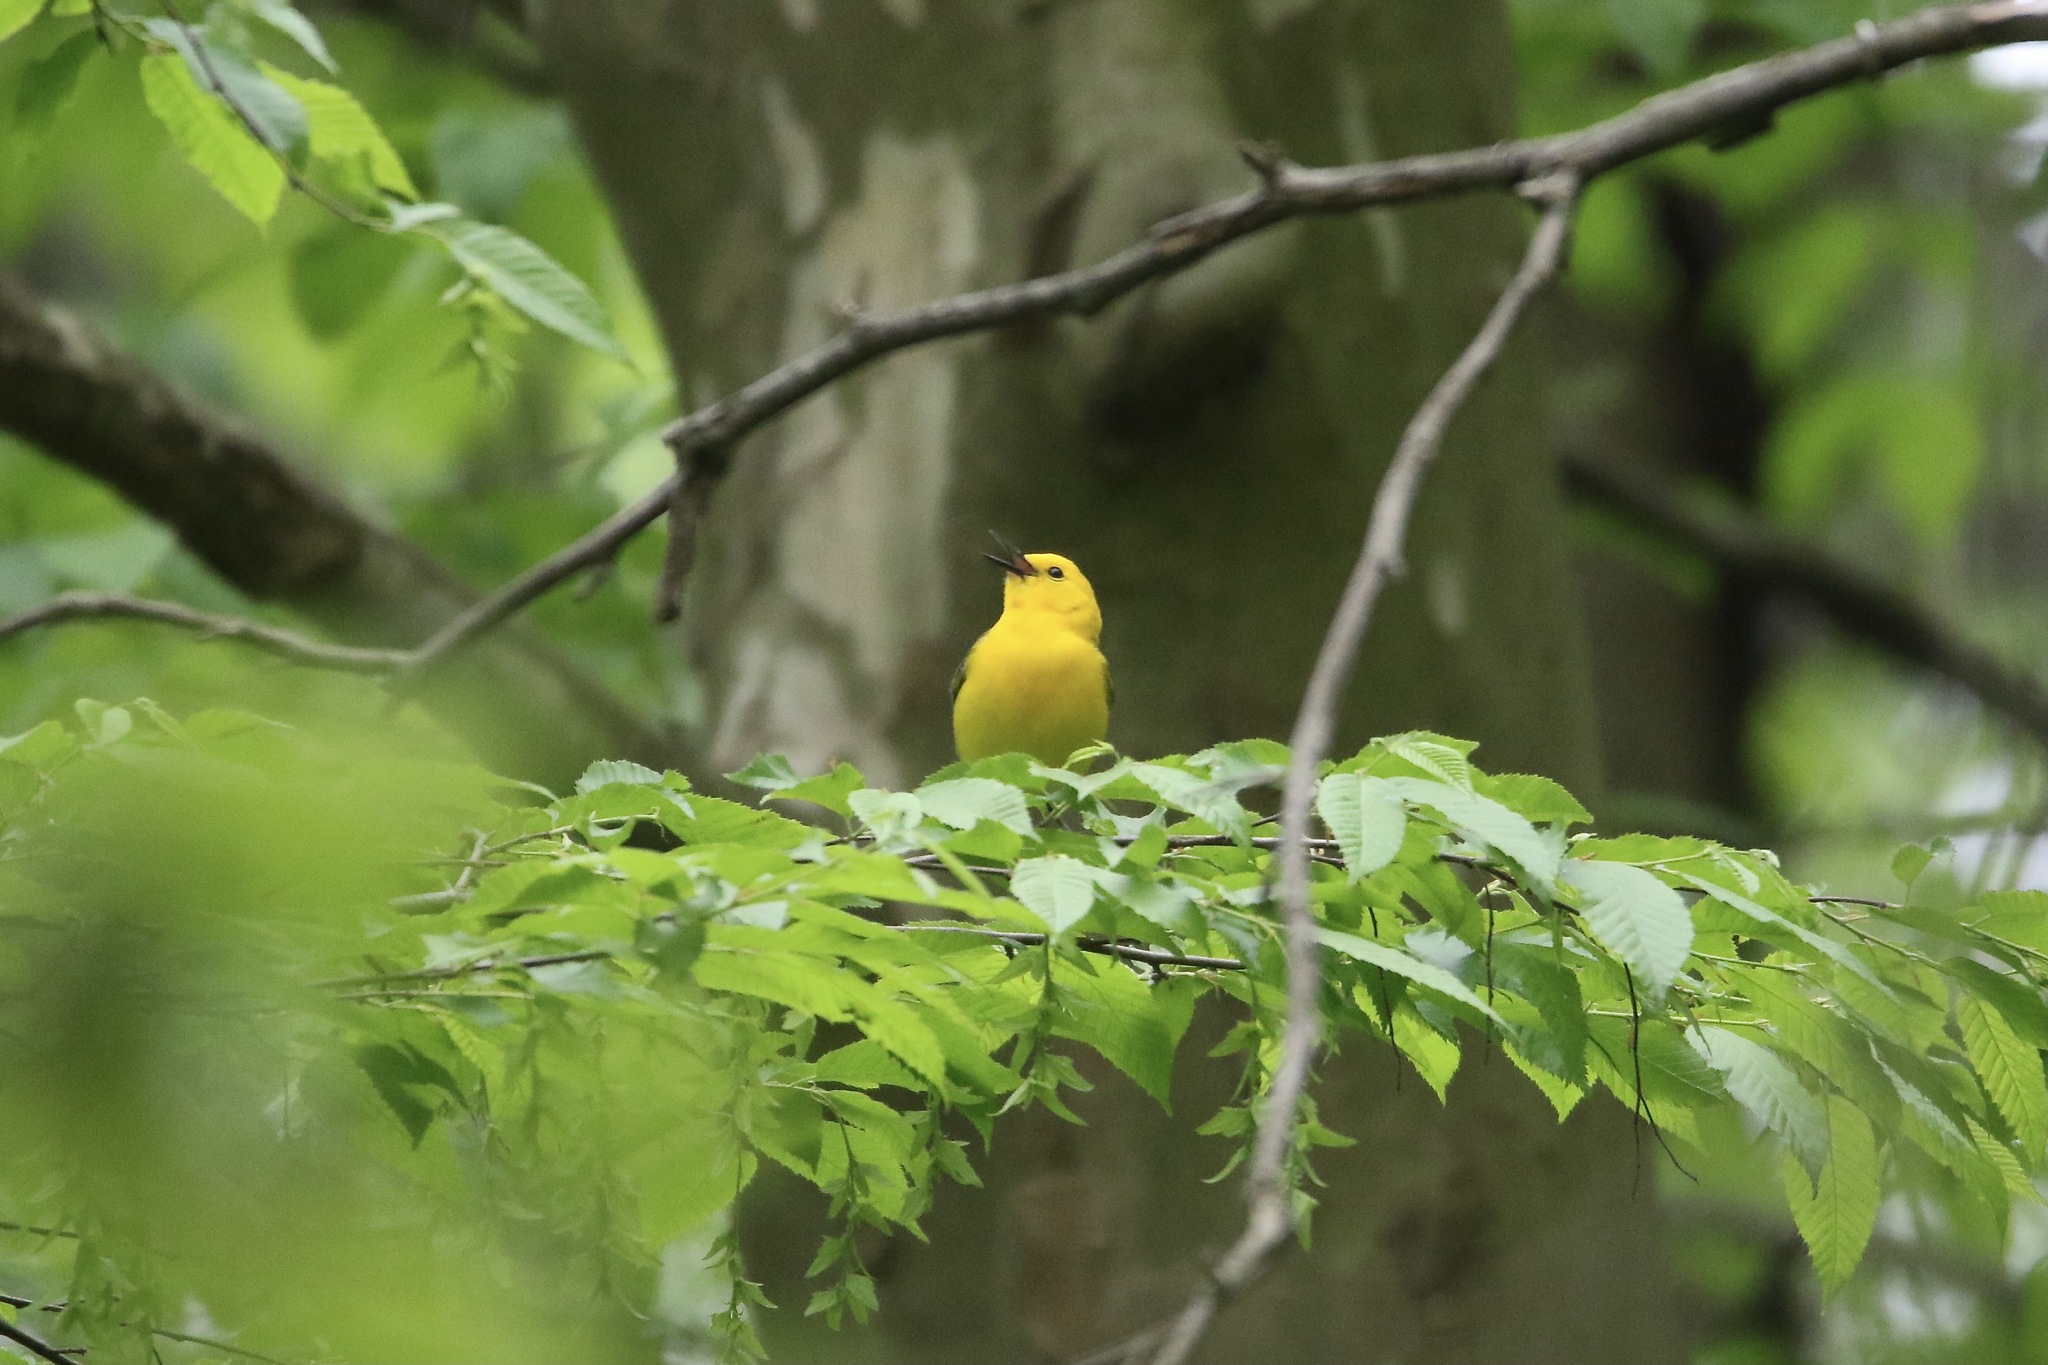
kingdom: Animalia
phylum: Chordata
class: Aves
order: Passeriformes
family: Parulidae
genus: Protonotaria
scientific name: Protonotaria citrea
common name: Prothonotary warbler
